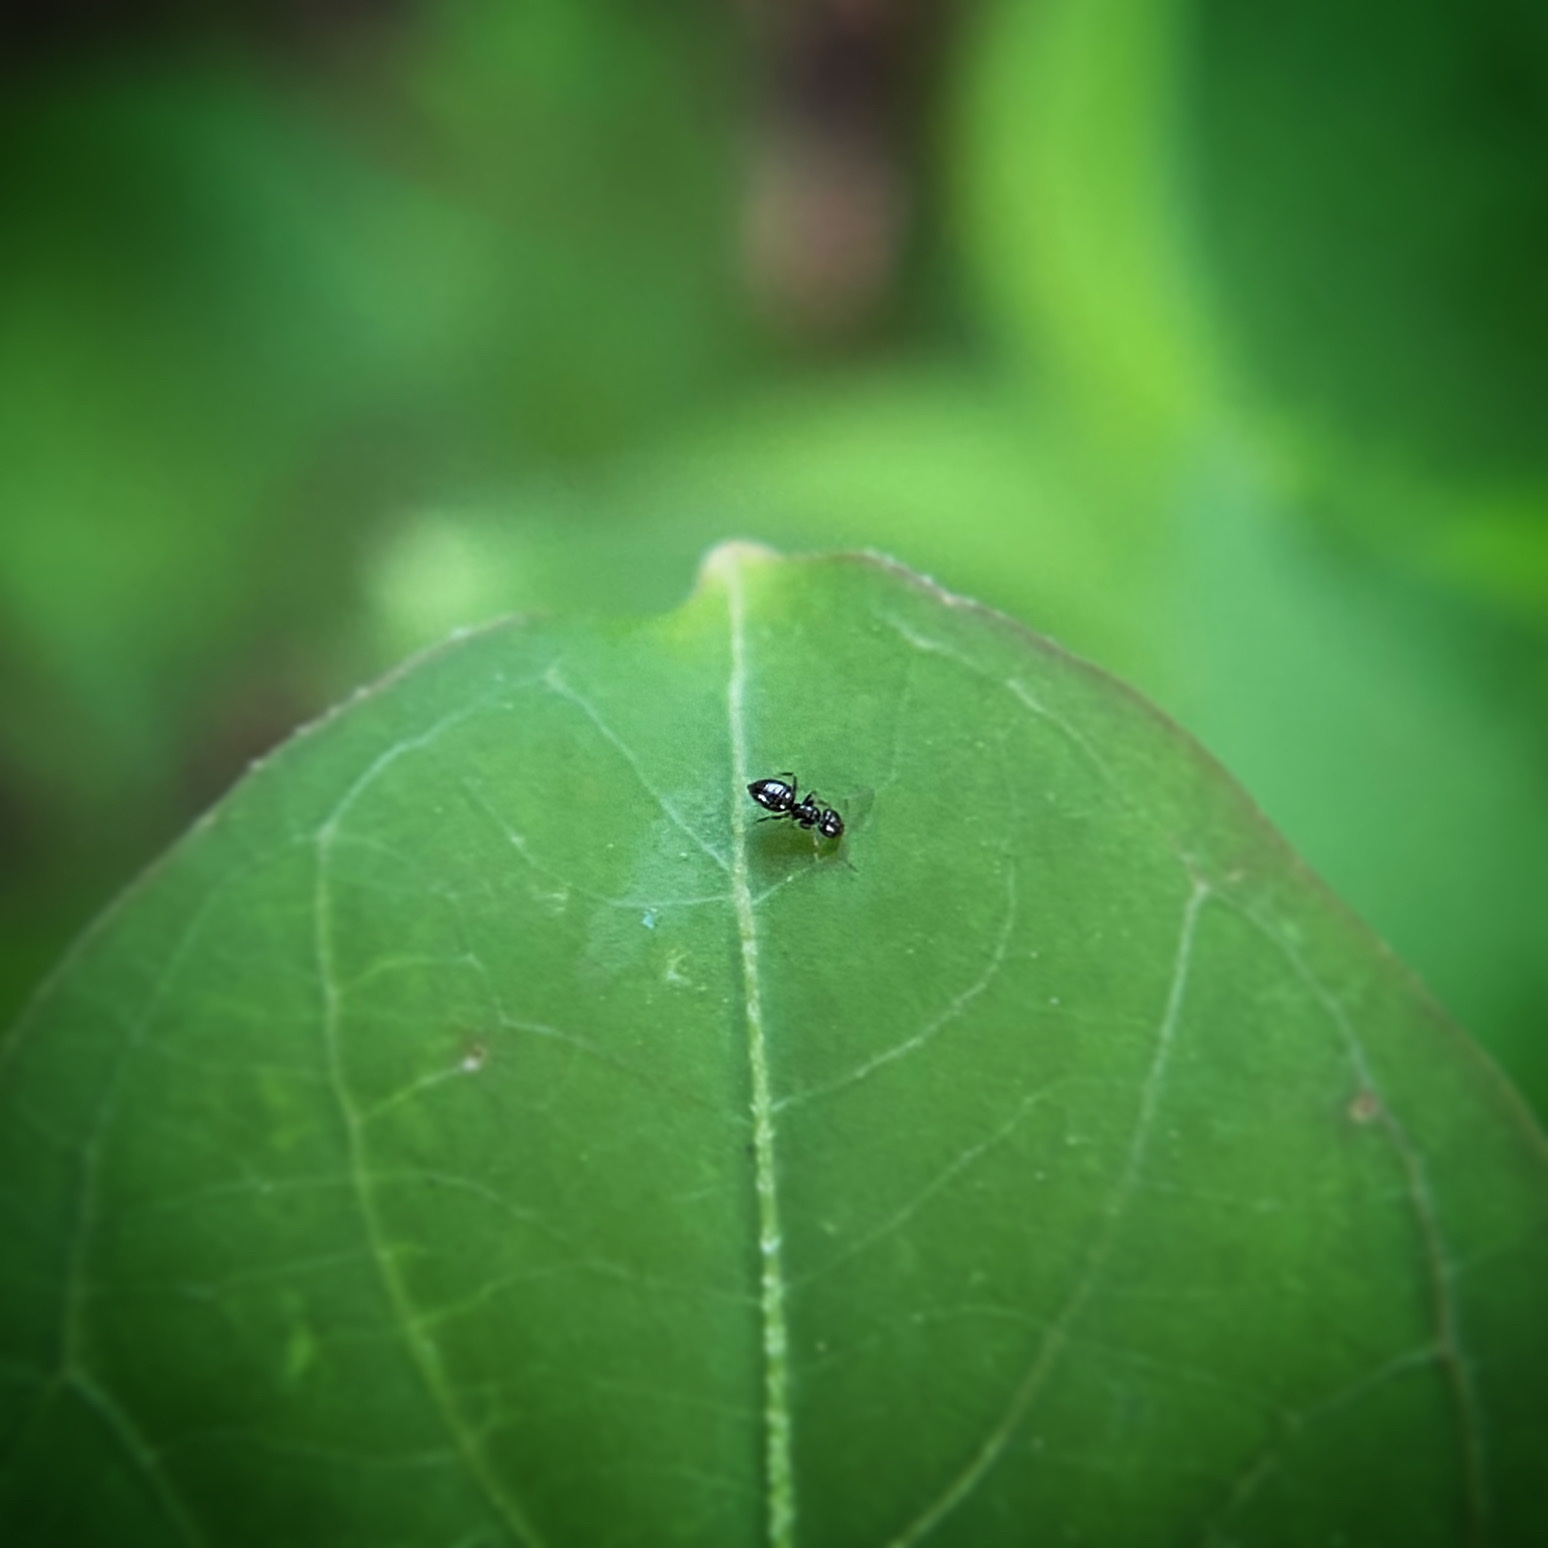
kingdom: Animalia
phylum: Arthropoda
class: Insecta
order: Hymenoptera
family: Formicidae
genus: Brachymyrmex
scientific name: Brachymyrmex patagonicus
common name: Dark rover ant
